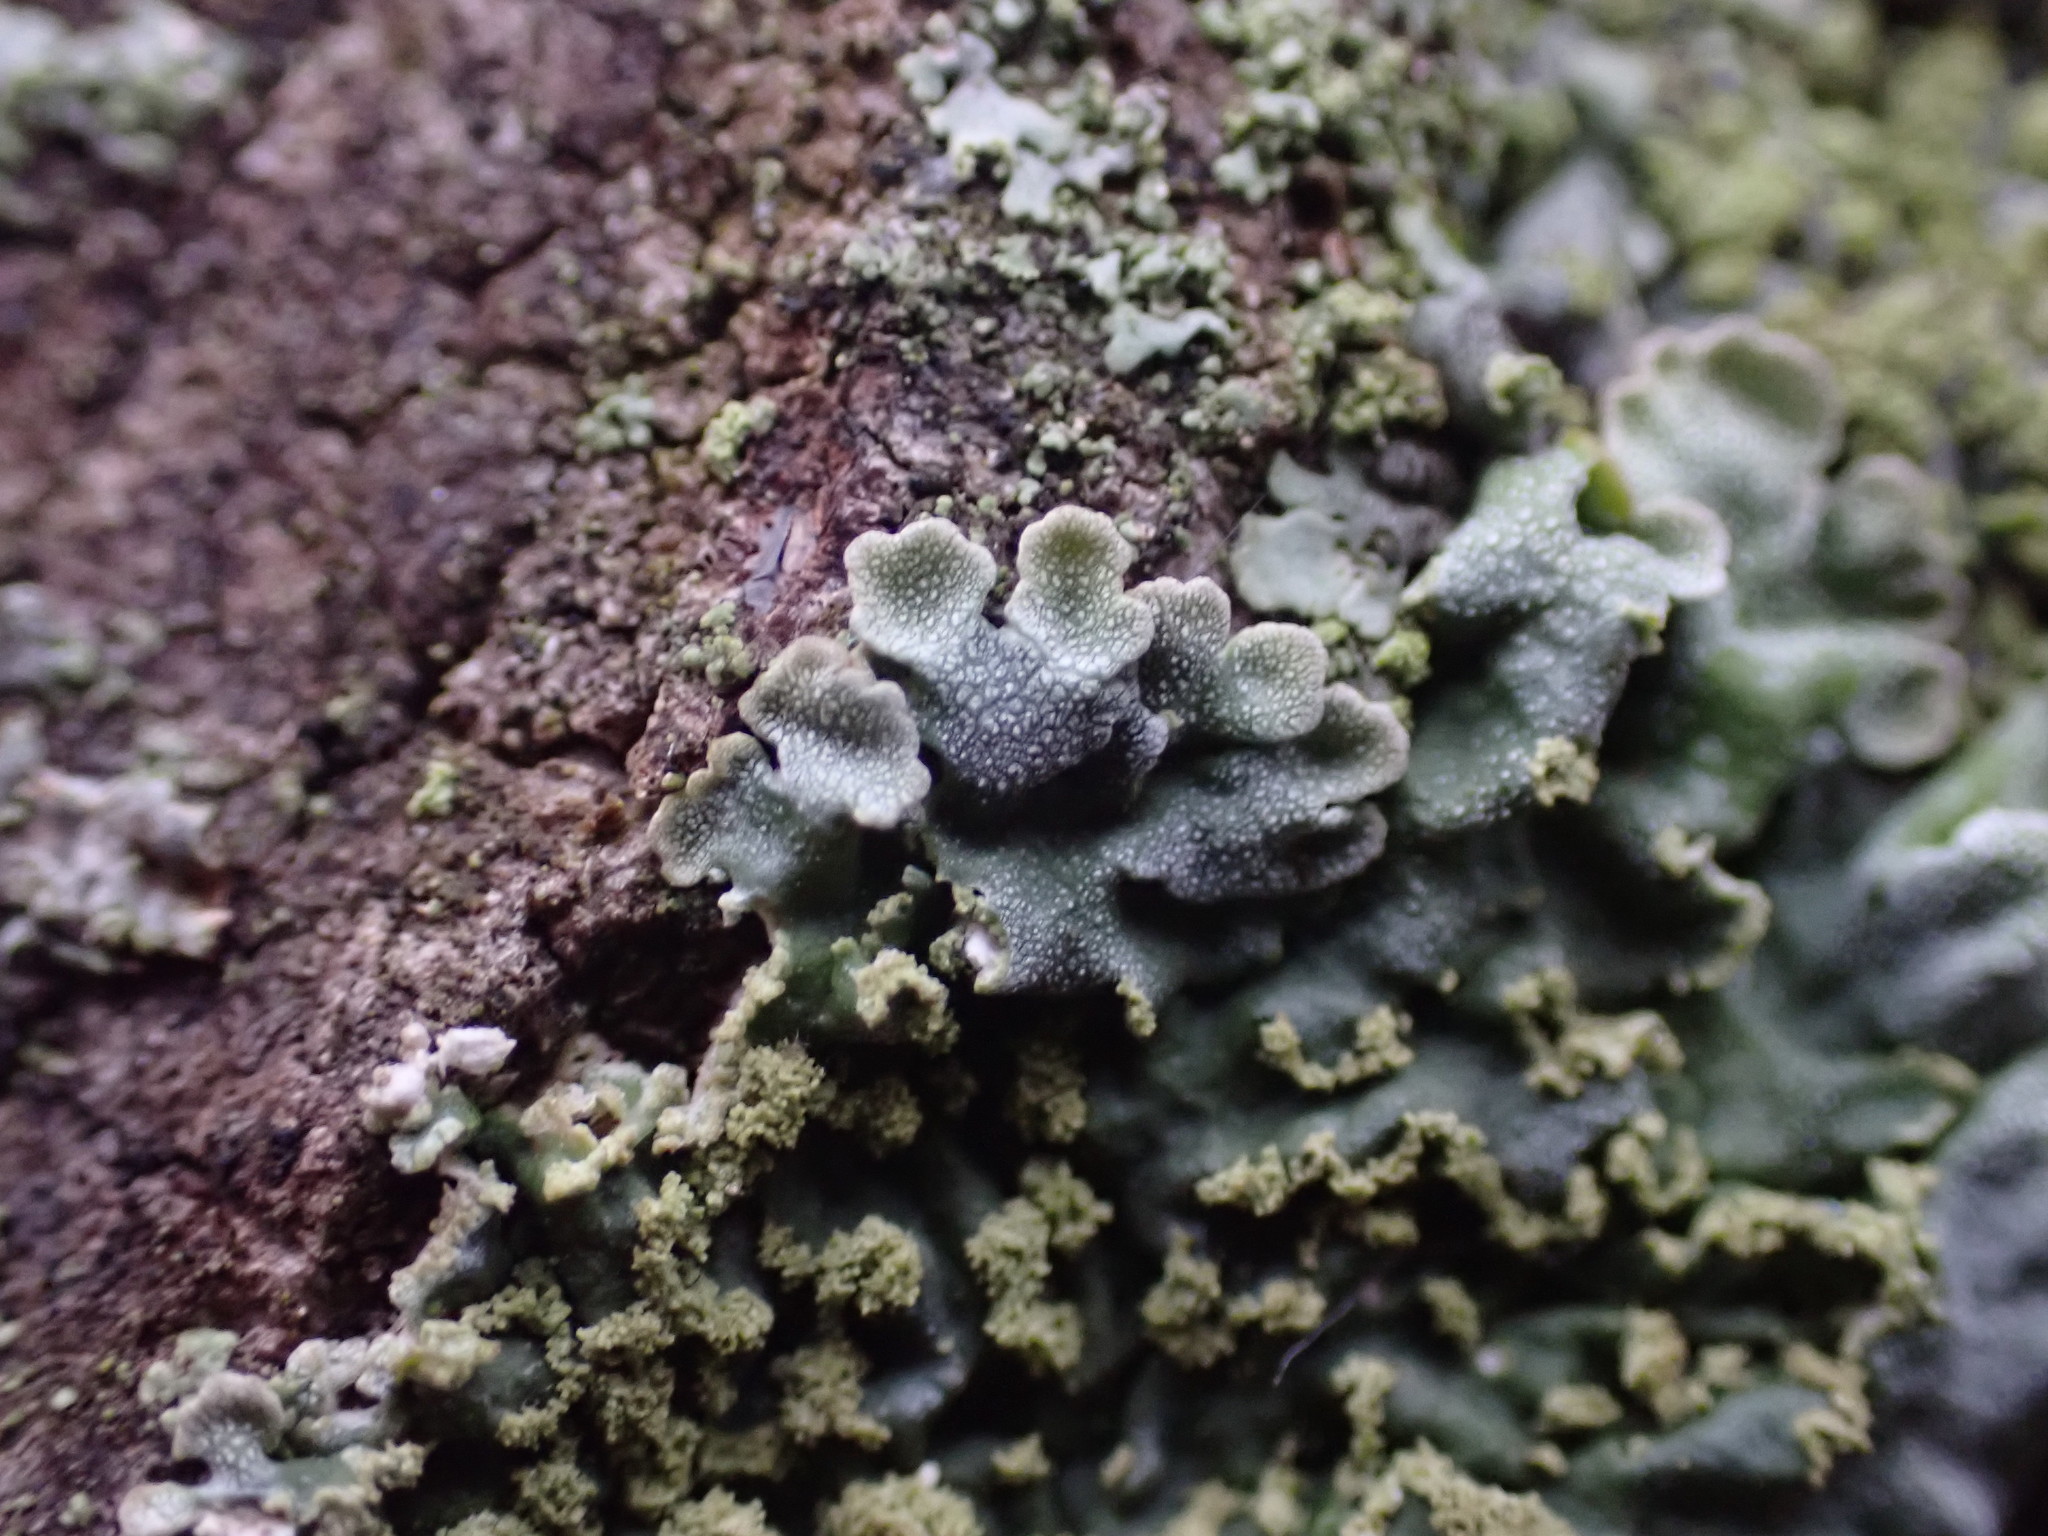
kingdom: Fungi
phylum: Ascomycota
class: Lecanoromycetes
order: Caliciales
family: Physciaceae
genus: Poeltonia
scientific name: Poeltonia grisea
